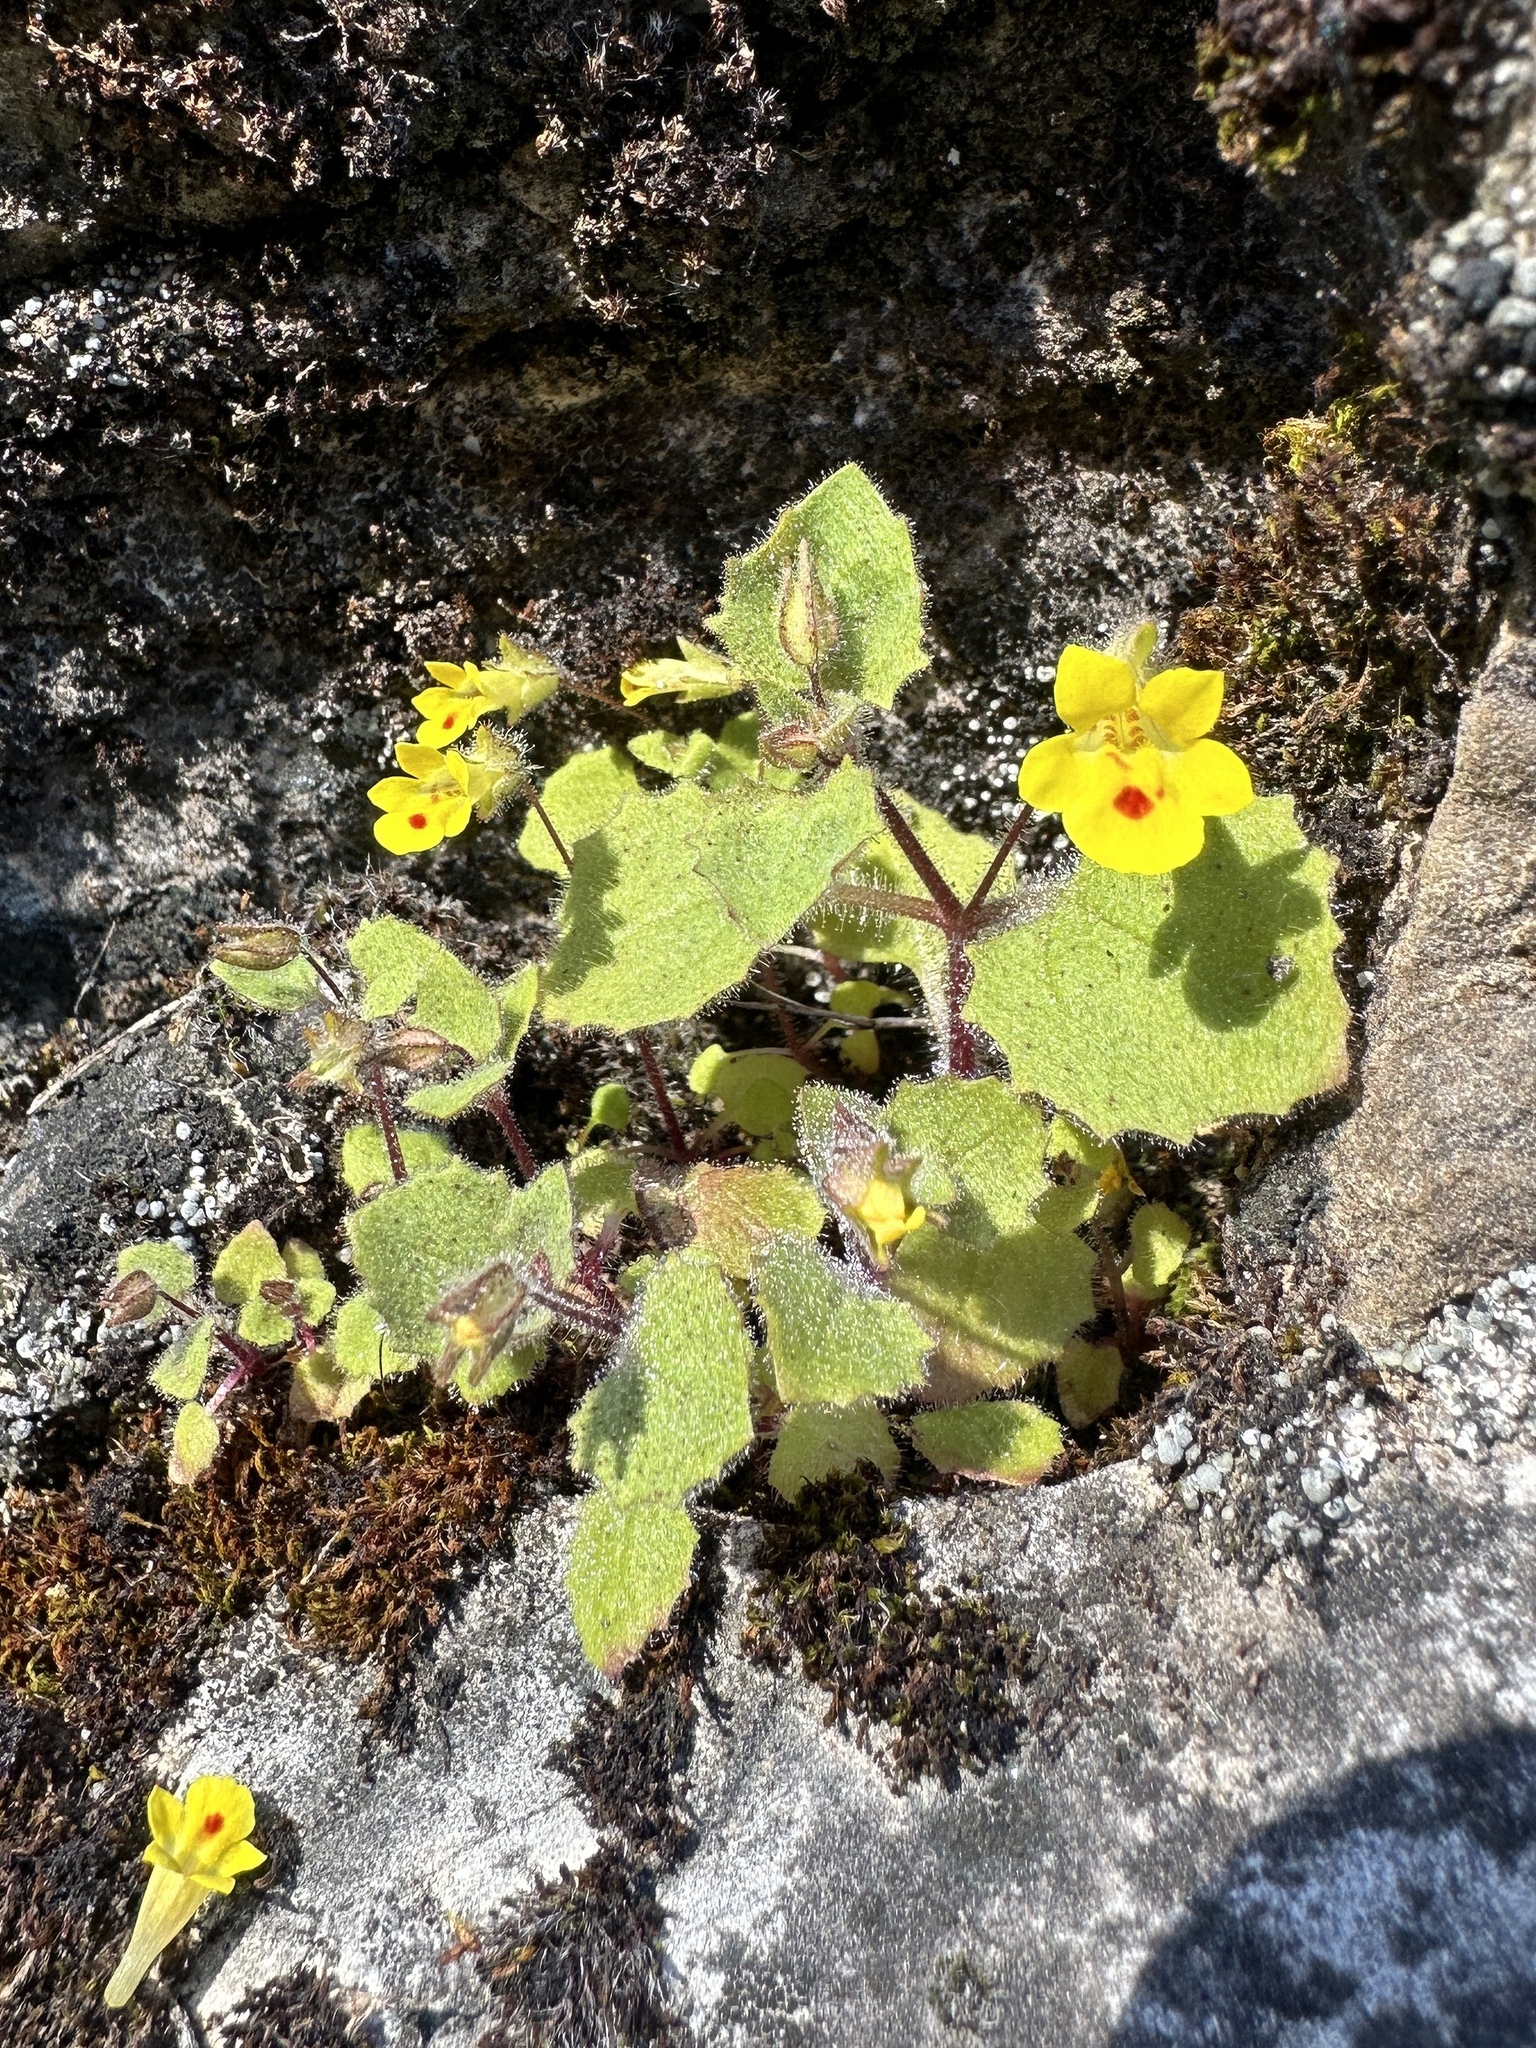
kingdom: Plantae
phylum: Tracheophyta
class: Magnoliopsida
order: Lamiales
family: Phrymaceae
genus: Erythranthe
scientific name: Erythranthe marmorata
